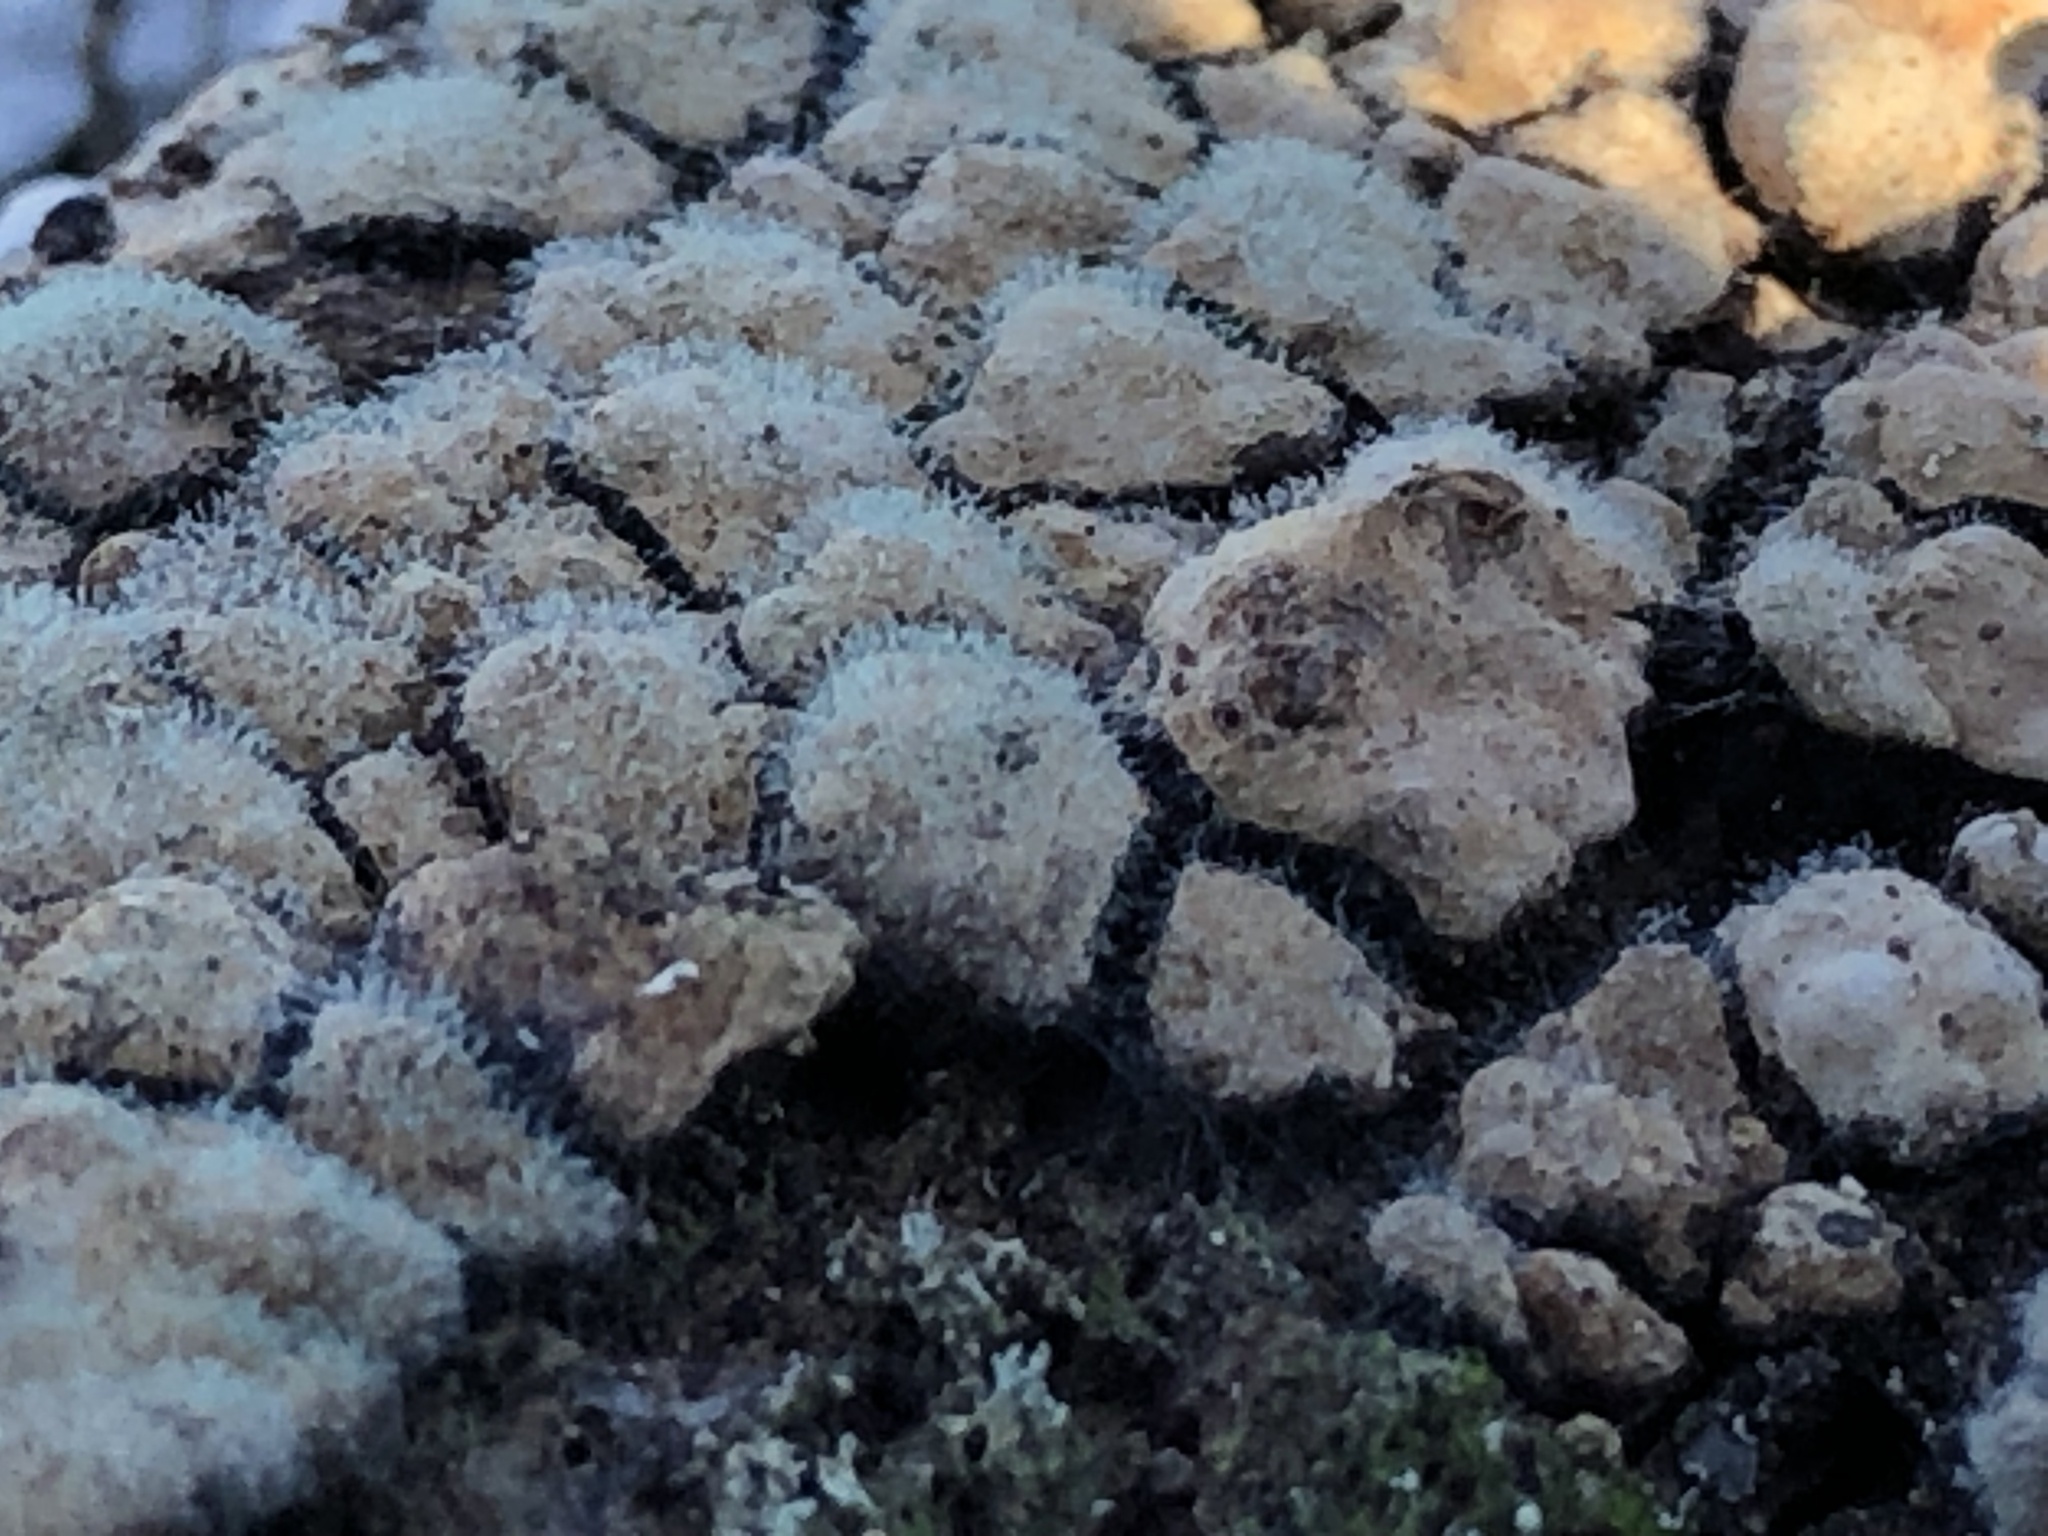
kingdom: Fungi
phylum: Basidiomycota
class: Agaricomycetes
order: Russulales
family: Stereaceae
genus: Xylobolus
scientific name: Xylobolus frustulatus
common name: Ceramic parchment
